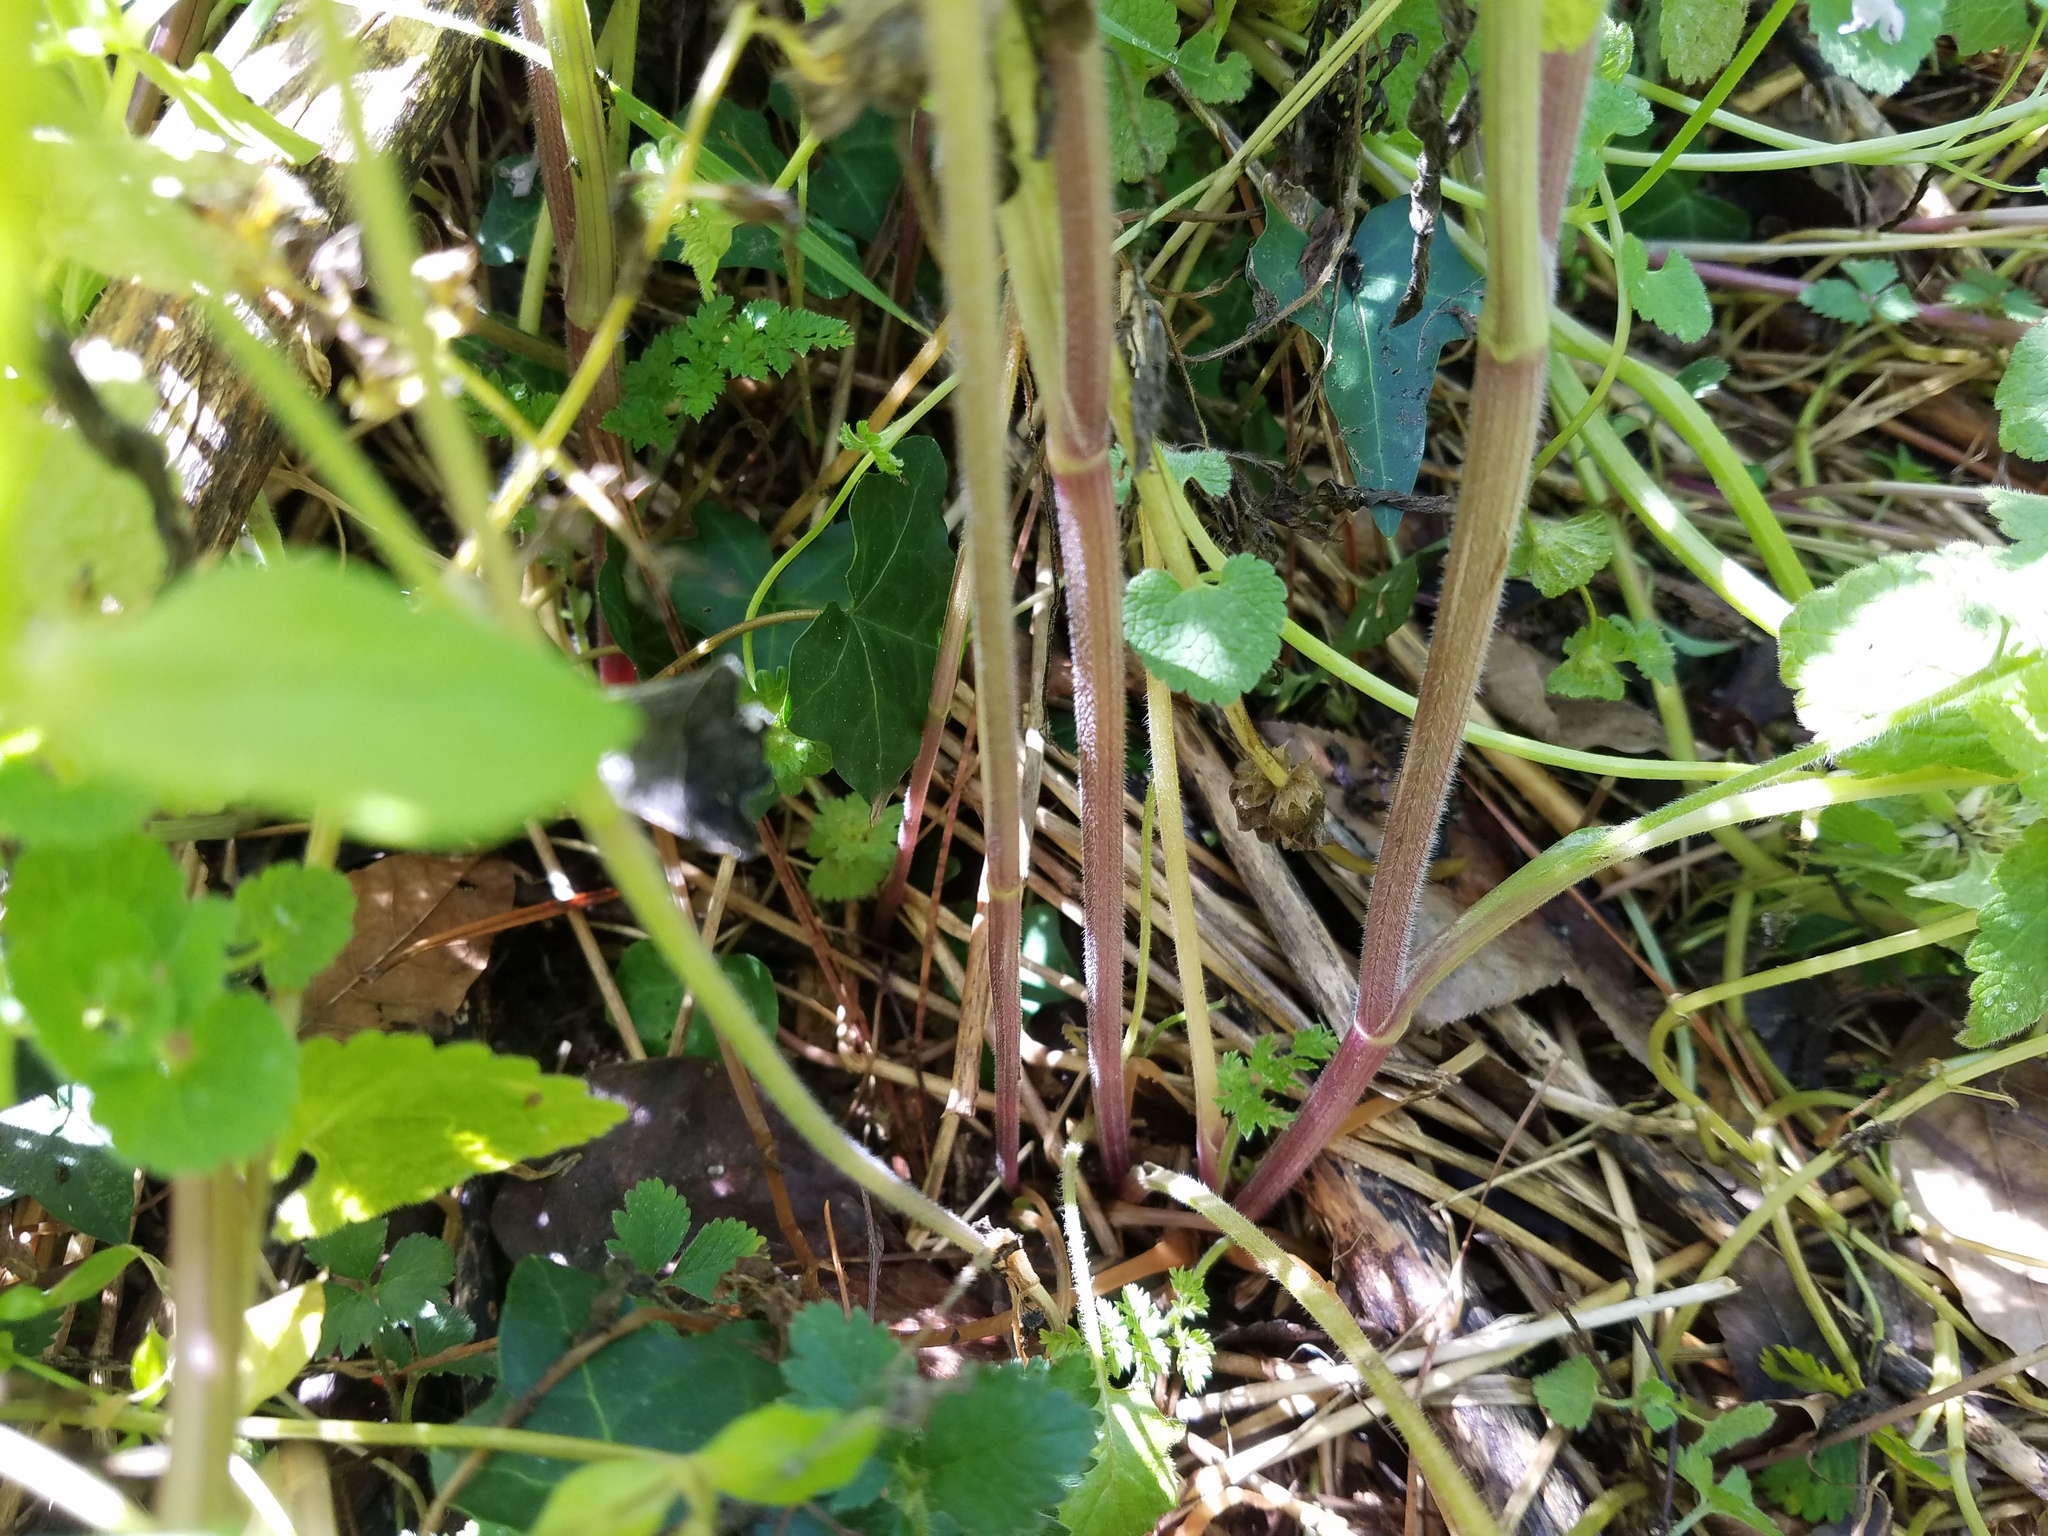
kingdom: Plantae
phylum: Tracheophyta
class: Magnoliopsida
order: Apiales
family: Apiaceae
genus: Chaerophyllum
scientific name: Chaerophyllum tainturieri
